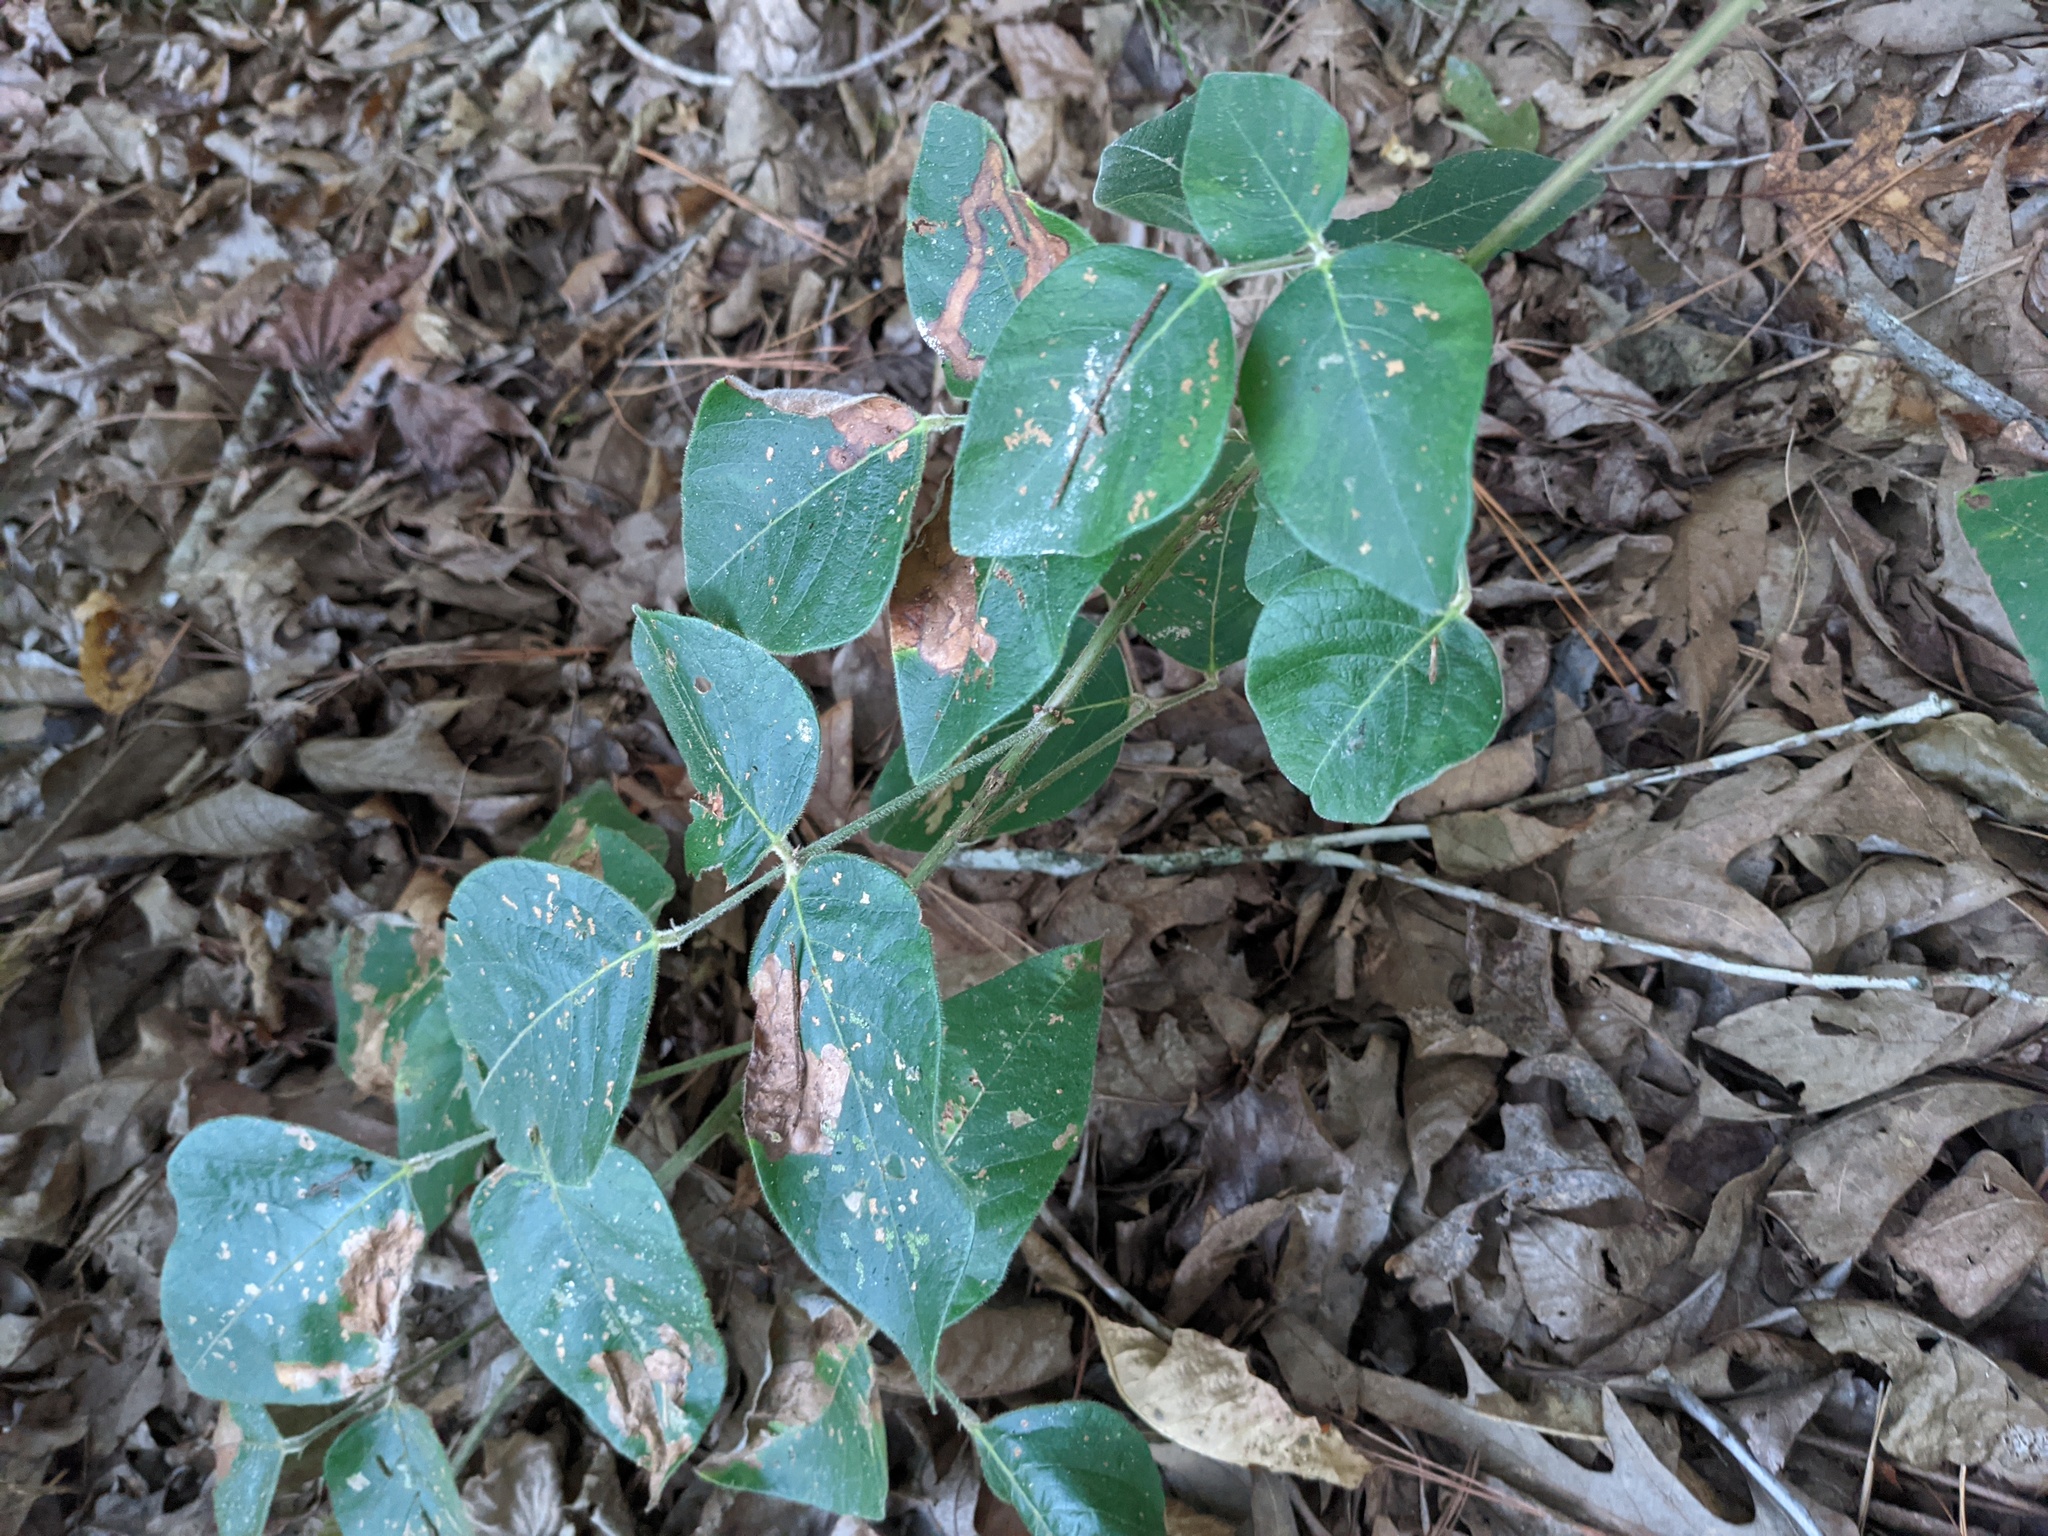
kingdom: Plantae
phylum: Tracheophyta
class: Magnoliopsida
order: Fabales
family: Fabaceae
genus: Desmodium
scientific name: Desmodium viridiflorum
